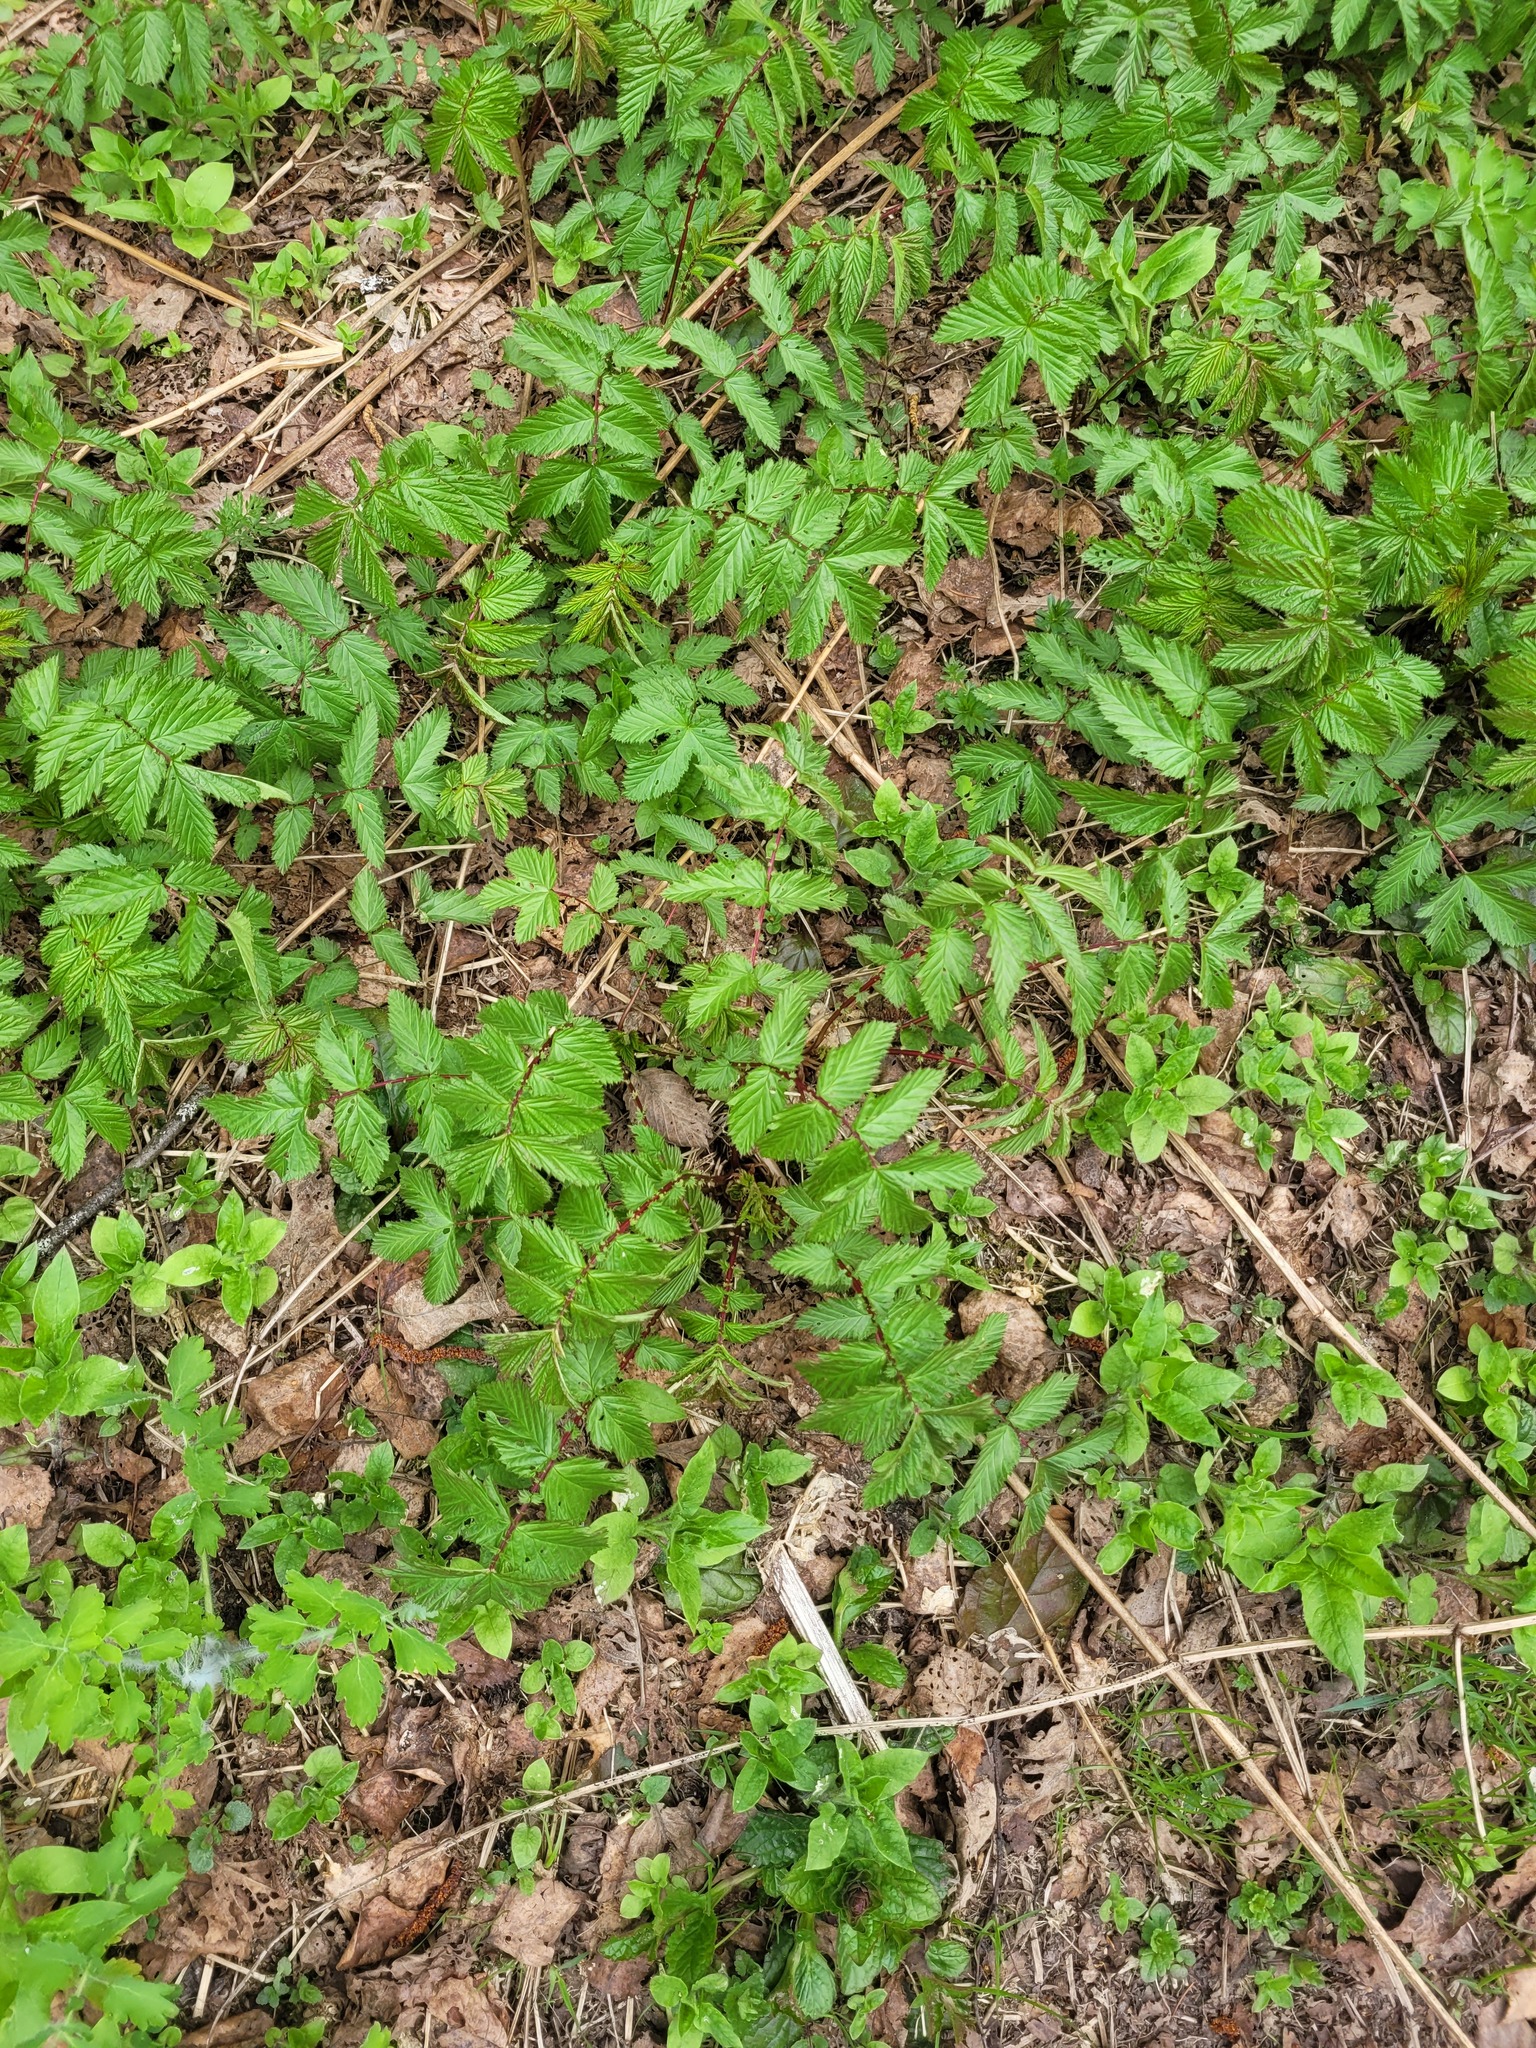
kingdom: Plantae
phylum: Tracheophyta
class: Magnoliopsida
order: Rosales
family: Rosaceae
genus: Filipendula
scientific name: Filipendula ulmaria
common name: Meadowsweet
